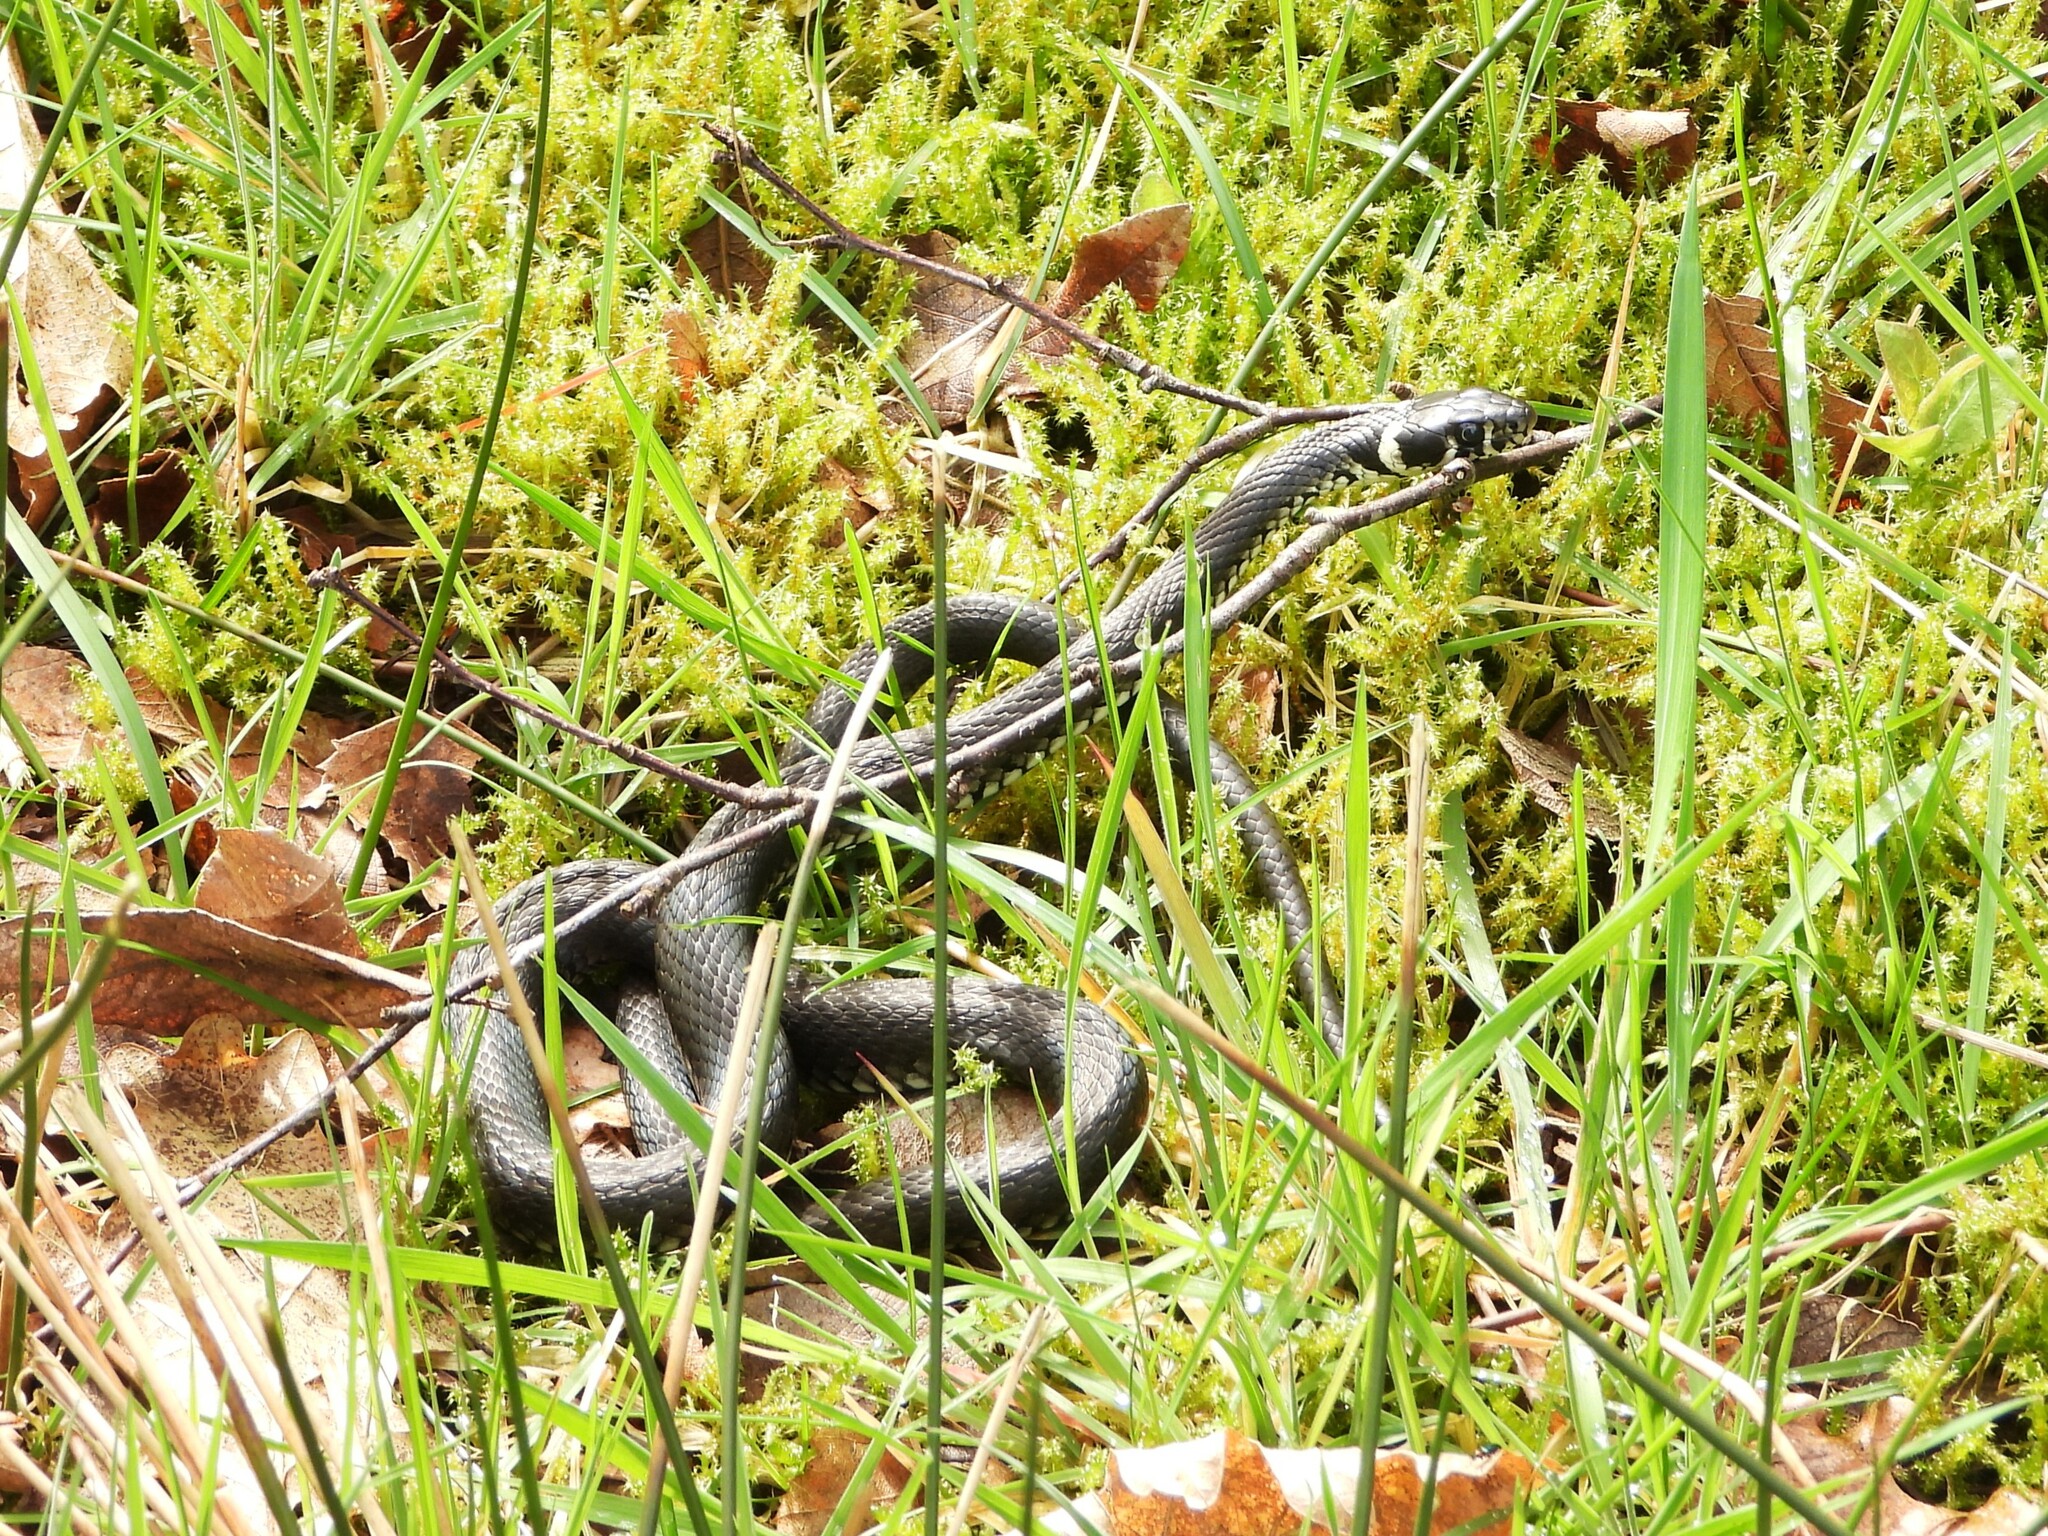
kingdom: Animalia
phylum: Chordata
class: Squamata
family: Colubridae
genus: Natrix
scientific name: Natrix natrix
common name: Grass snake
